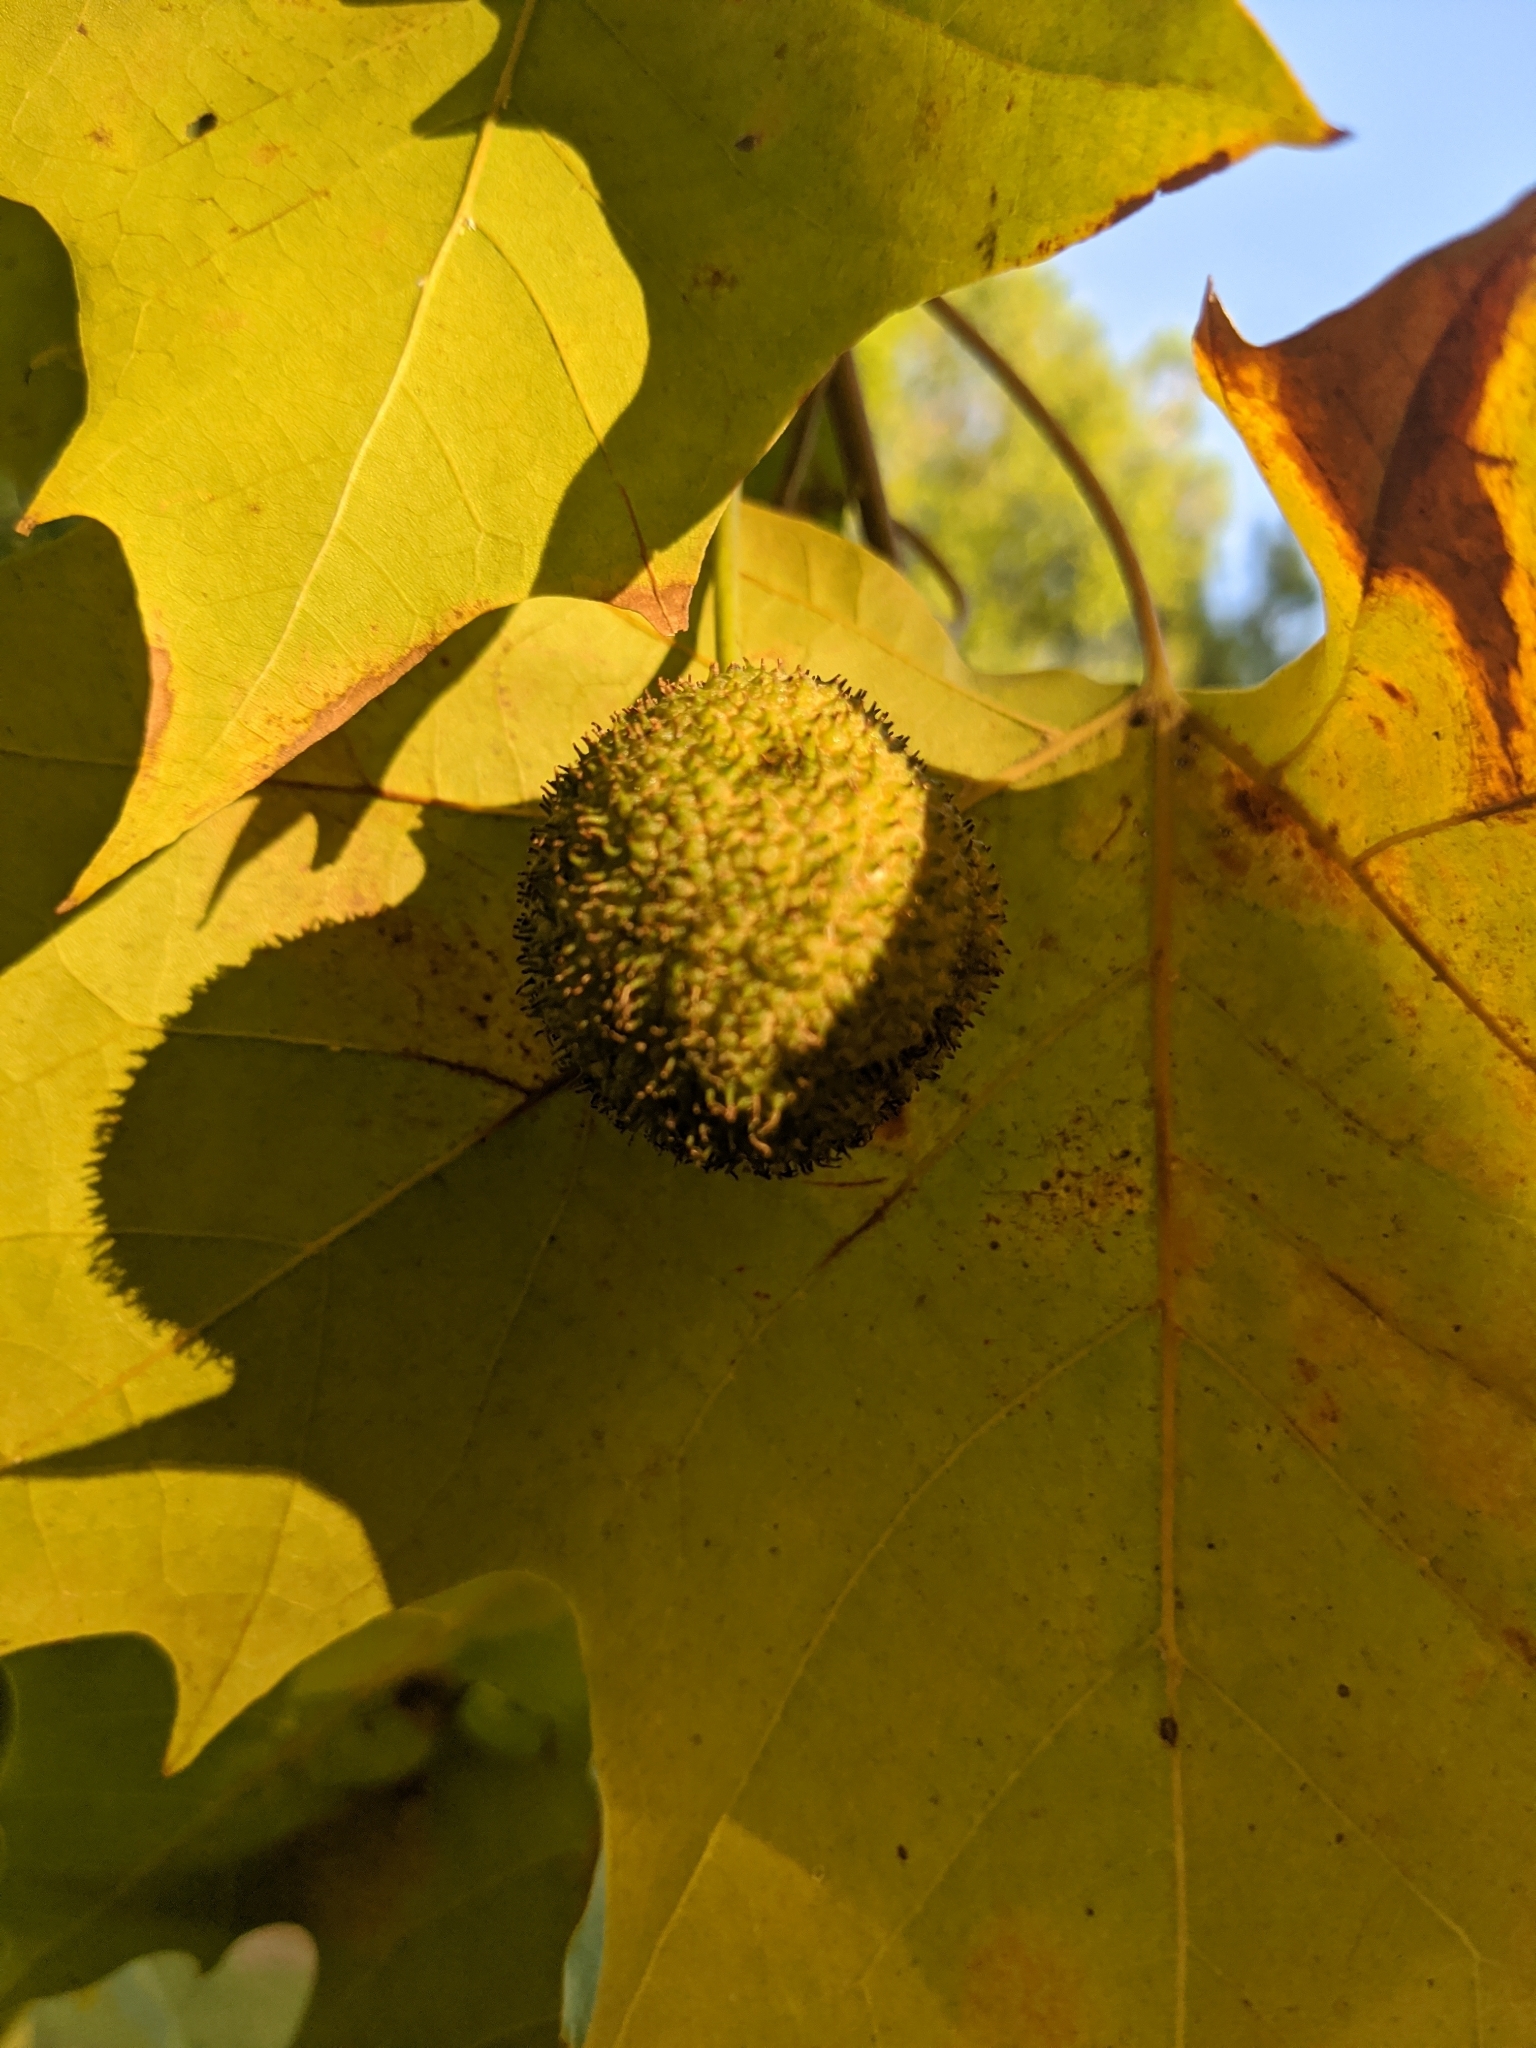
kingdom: Plantae
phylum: Tracheophyta
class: Magnoliopsida
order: Proteales
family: Platanaceae
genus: Platanus
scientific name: Platanus occidentalis
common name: American sycamore
